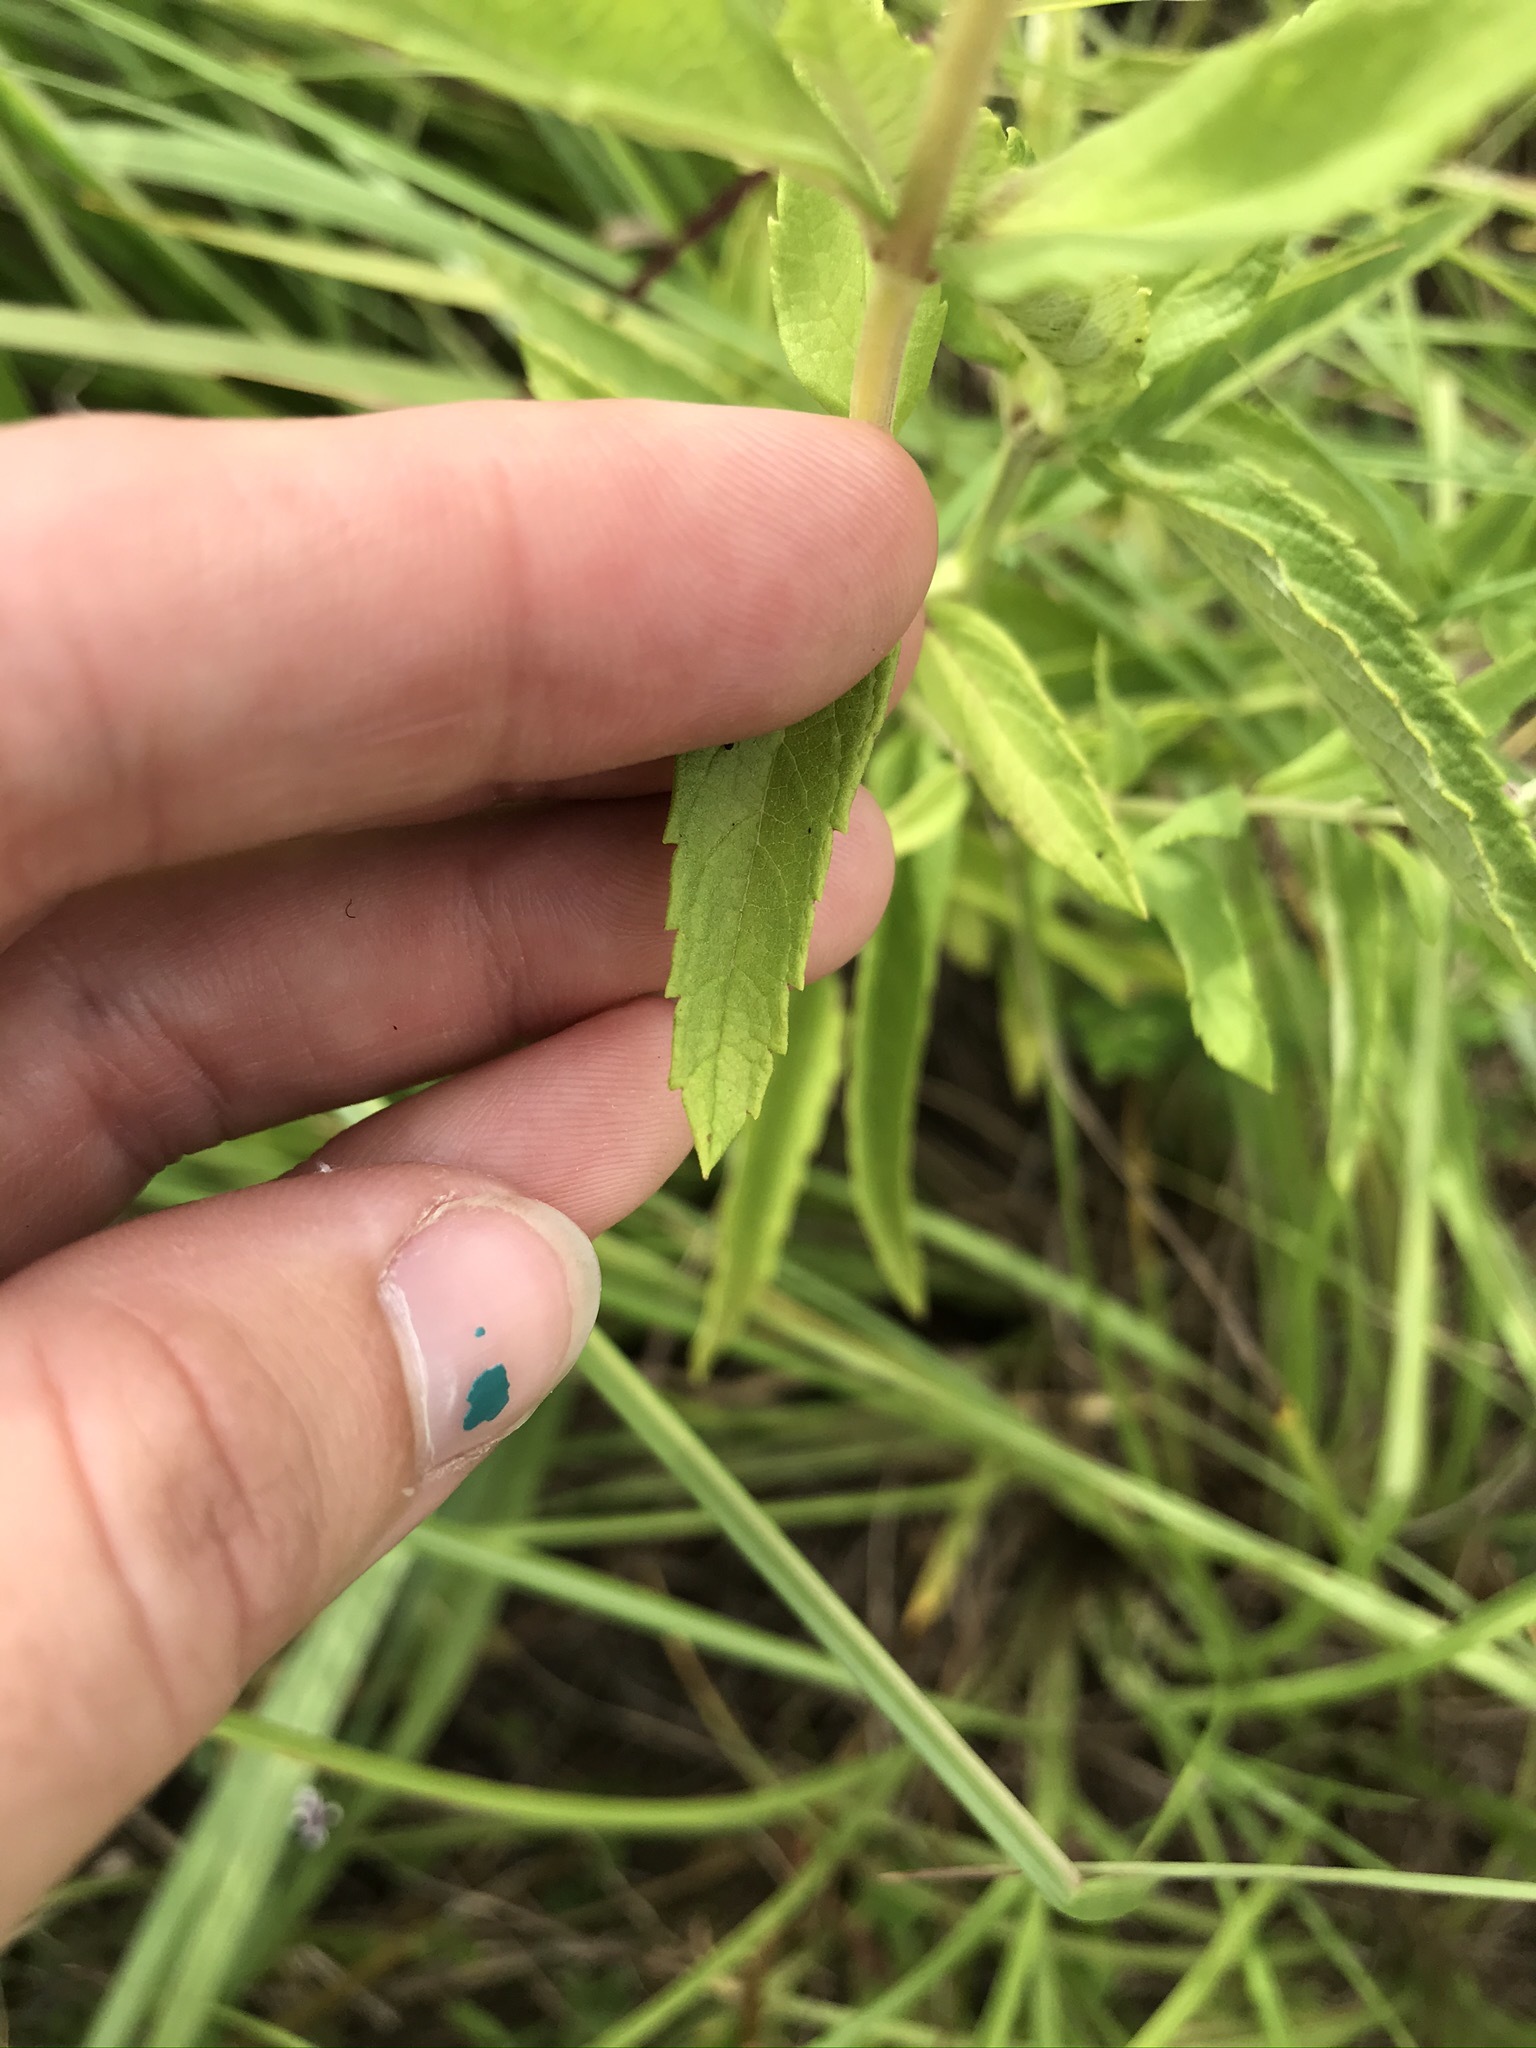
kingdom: Plantae
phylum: Tracheophyta
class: Magnoliopsida
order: Lamiales
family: Lamiaceae
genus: Teucrium
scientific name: Teucrium canadense
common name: American germander
